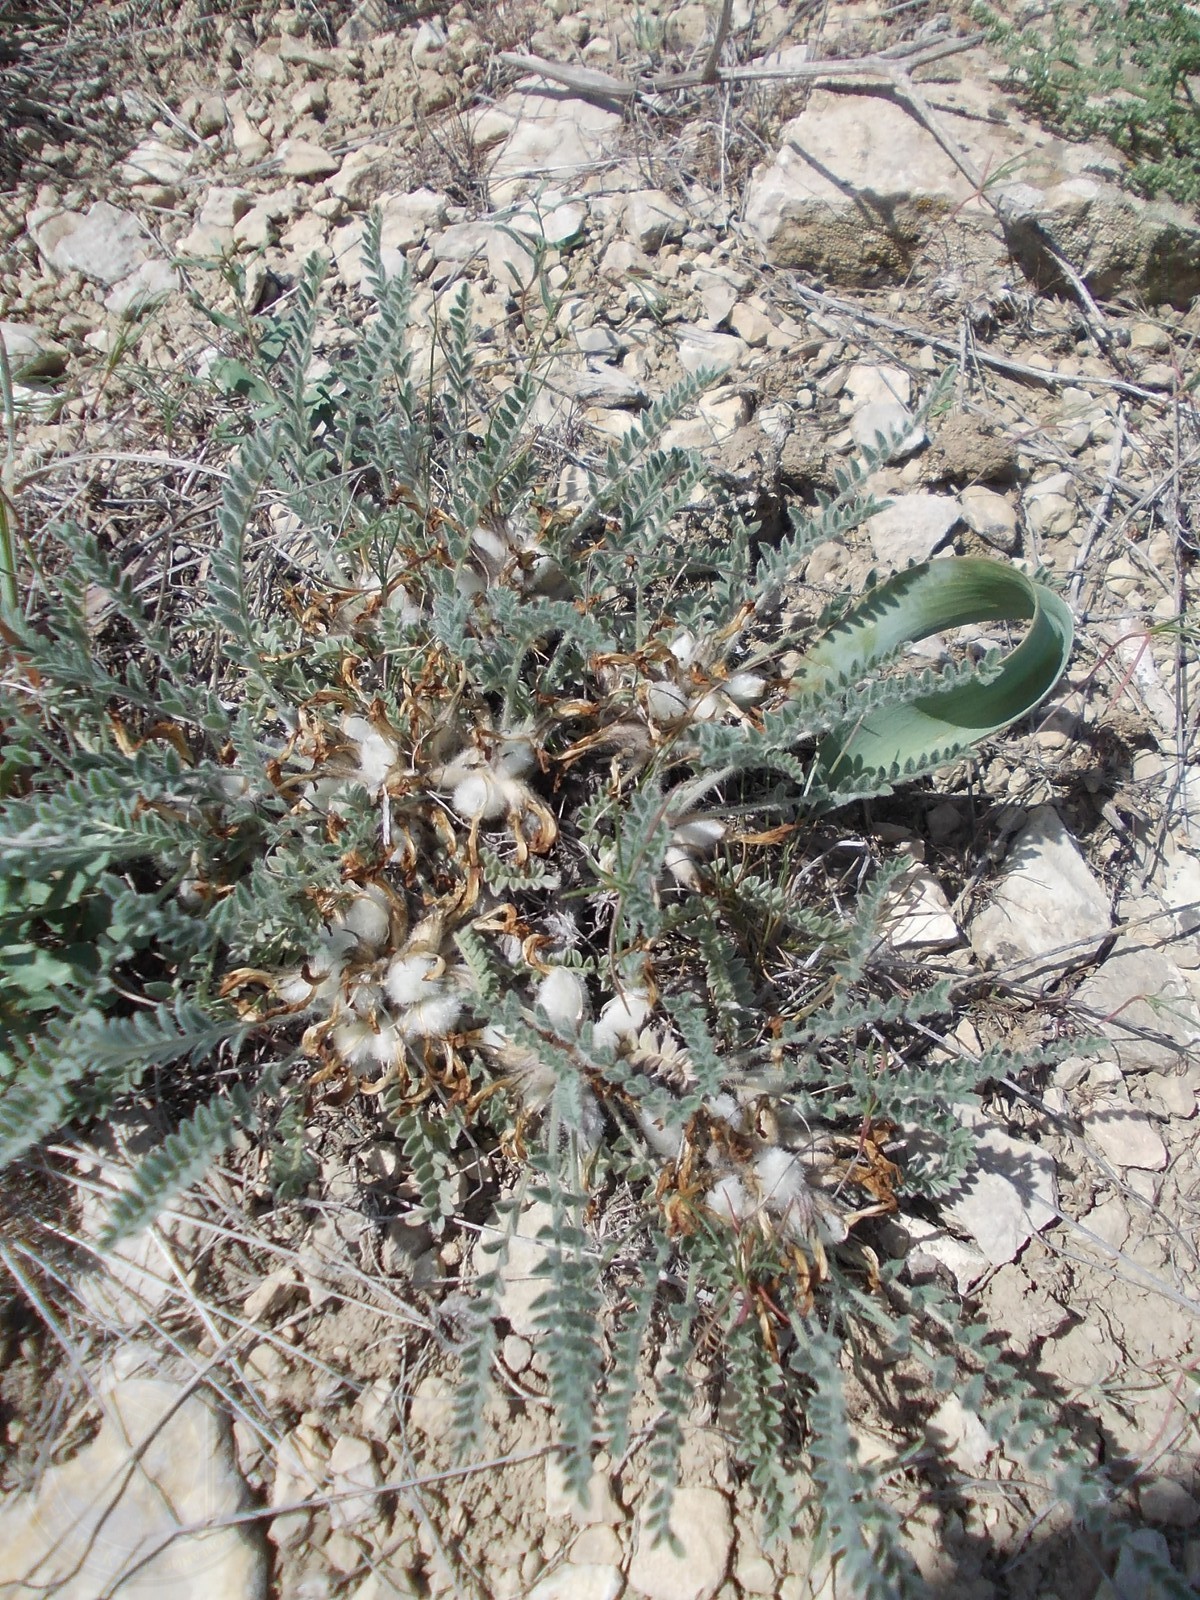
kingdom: Plantae
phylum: Tracheophyta
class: Magnoliopsida
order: Fabales
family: Fabaceae
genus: Astragalus
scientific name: Astragalus testiculatus
